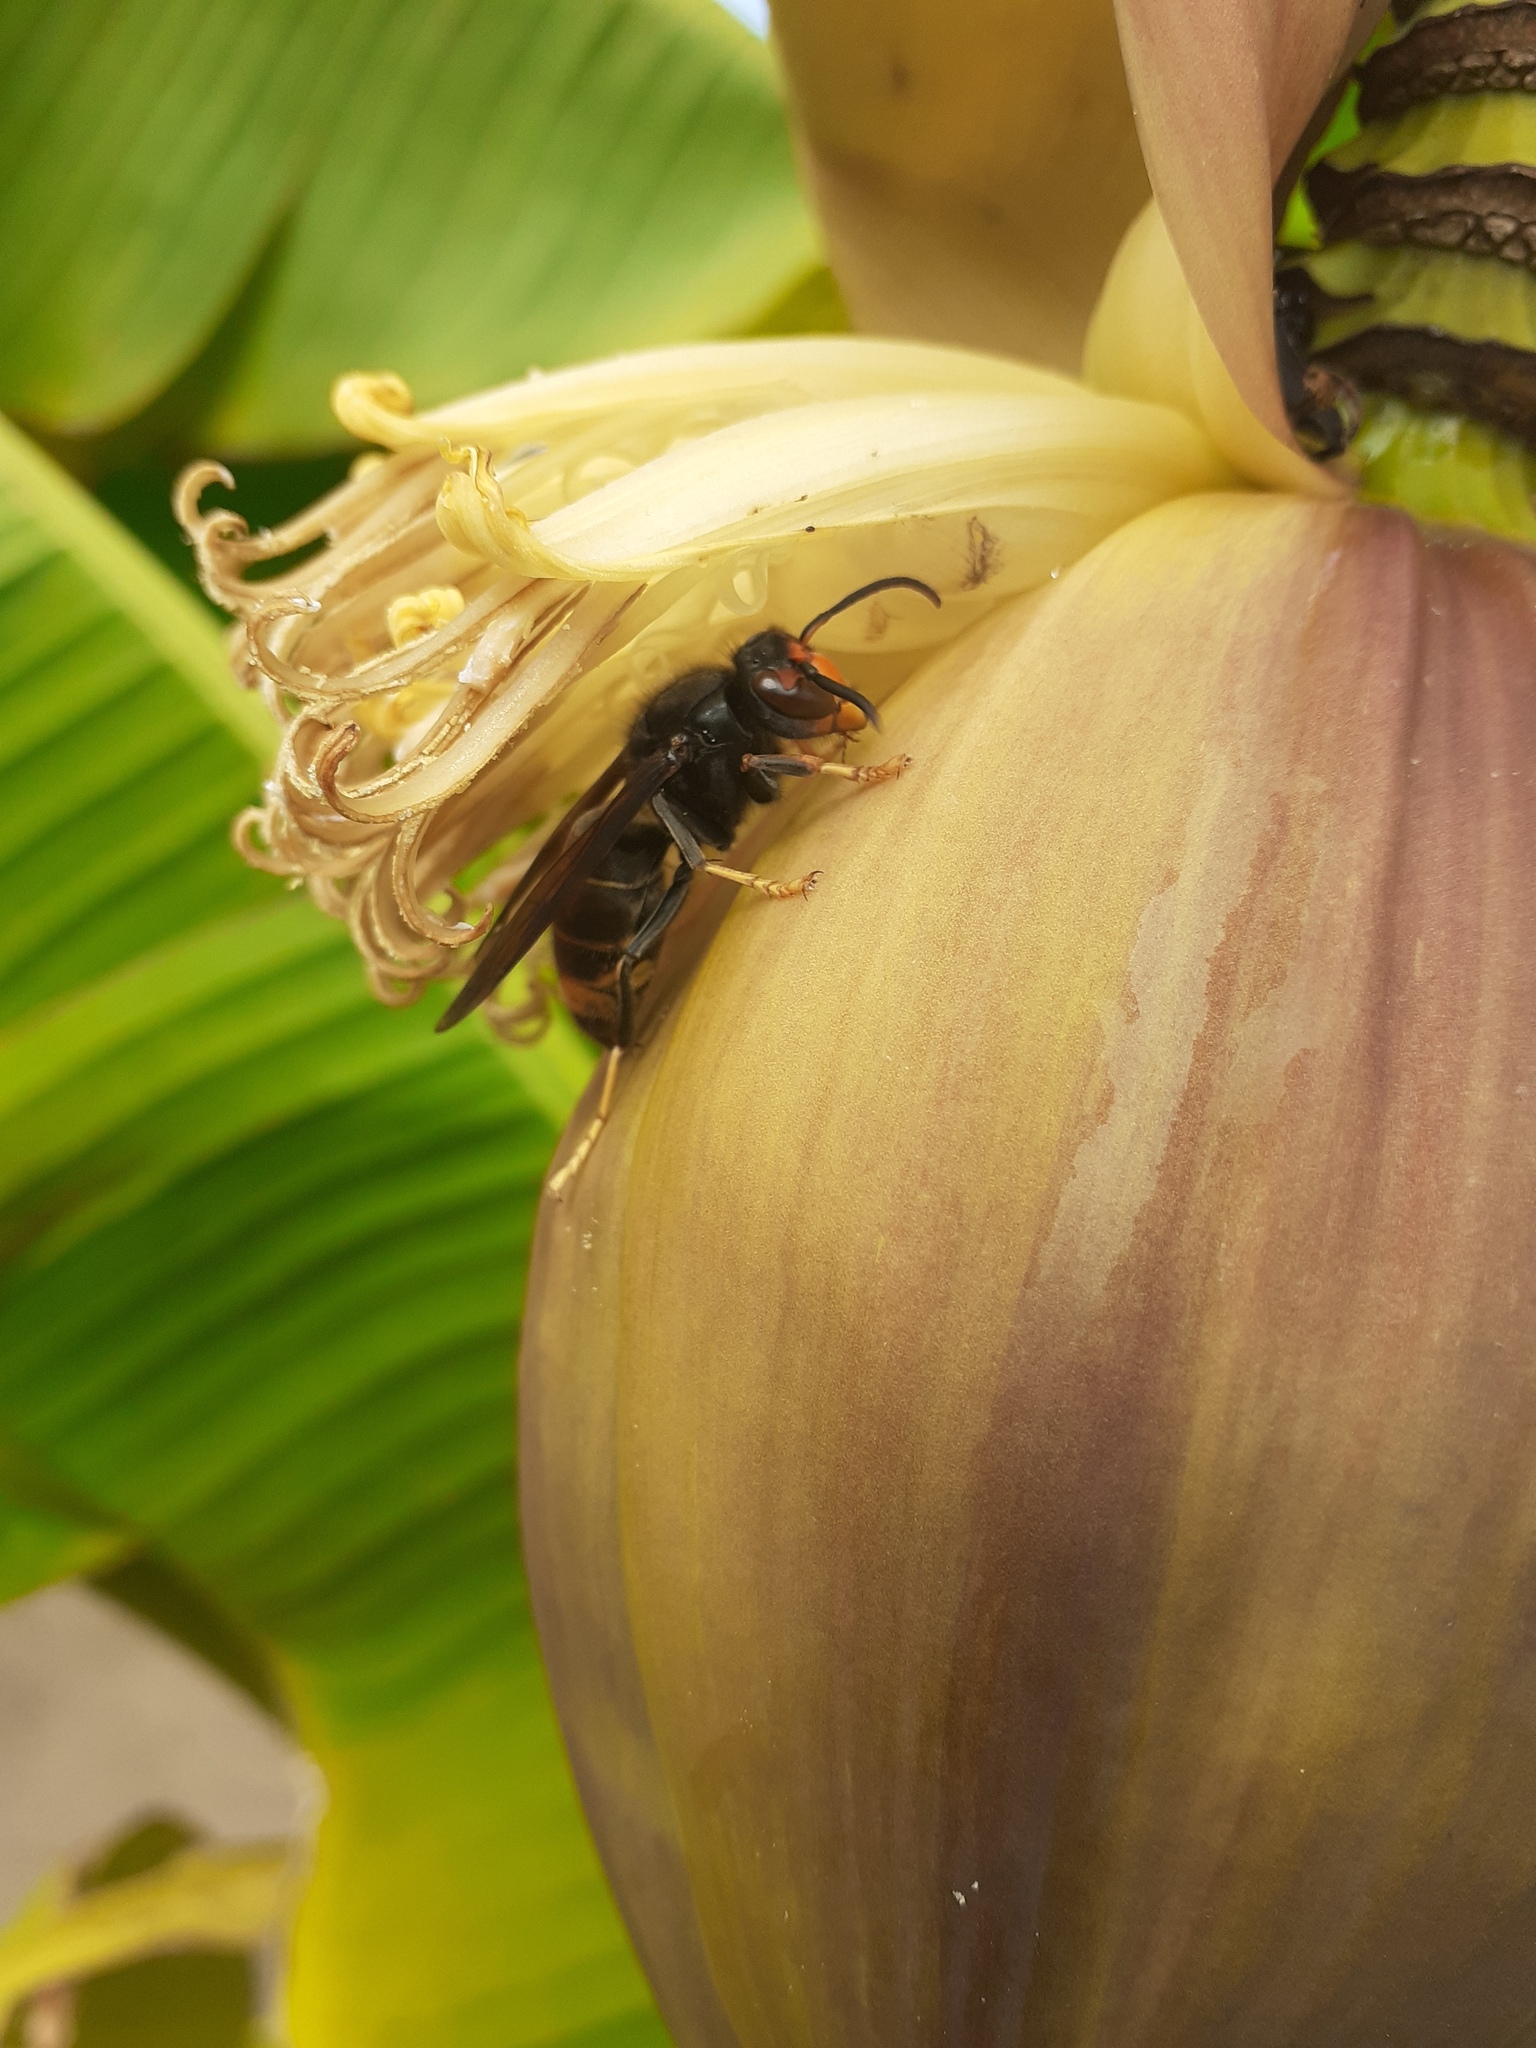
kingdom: Animalia
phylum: Arthropoda
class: Insecta
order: Hymenoptera
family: Vespidae
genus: Vespa
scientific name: Vespa velutina
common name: Asian hornet
